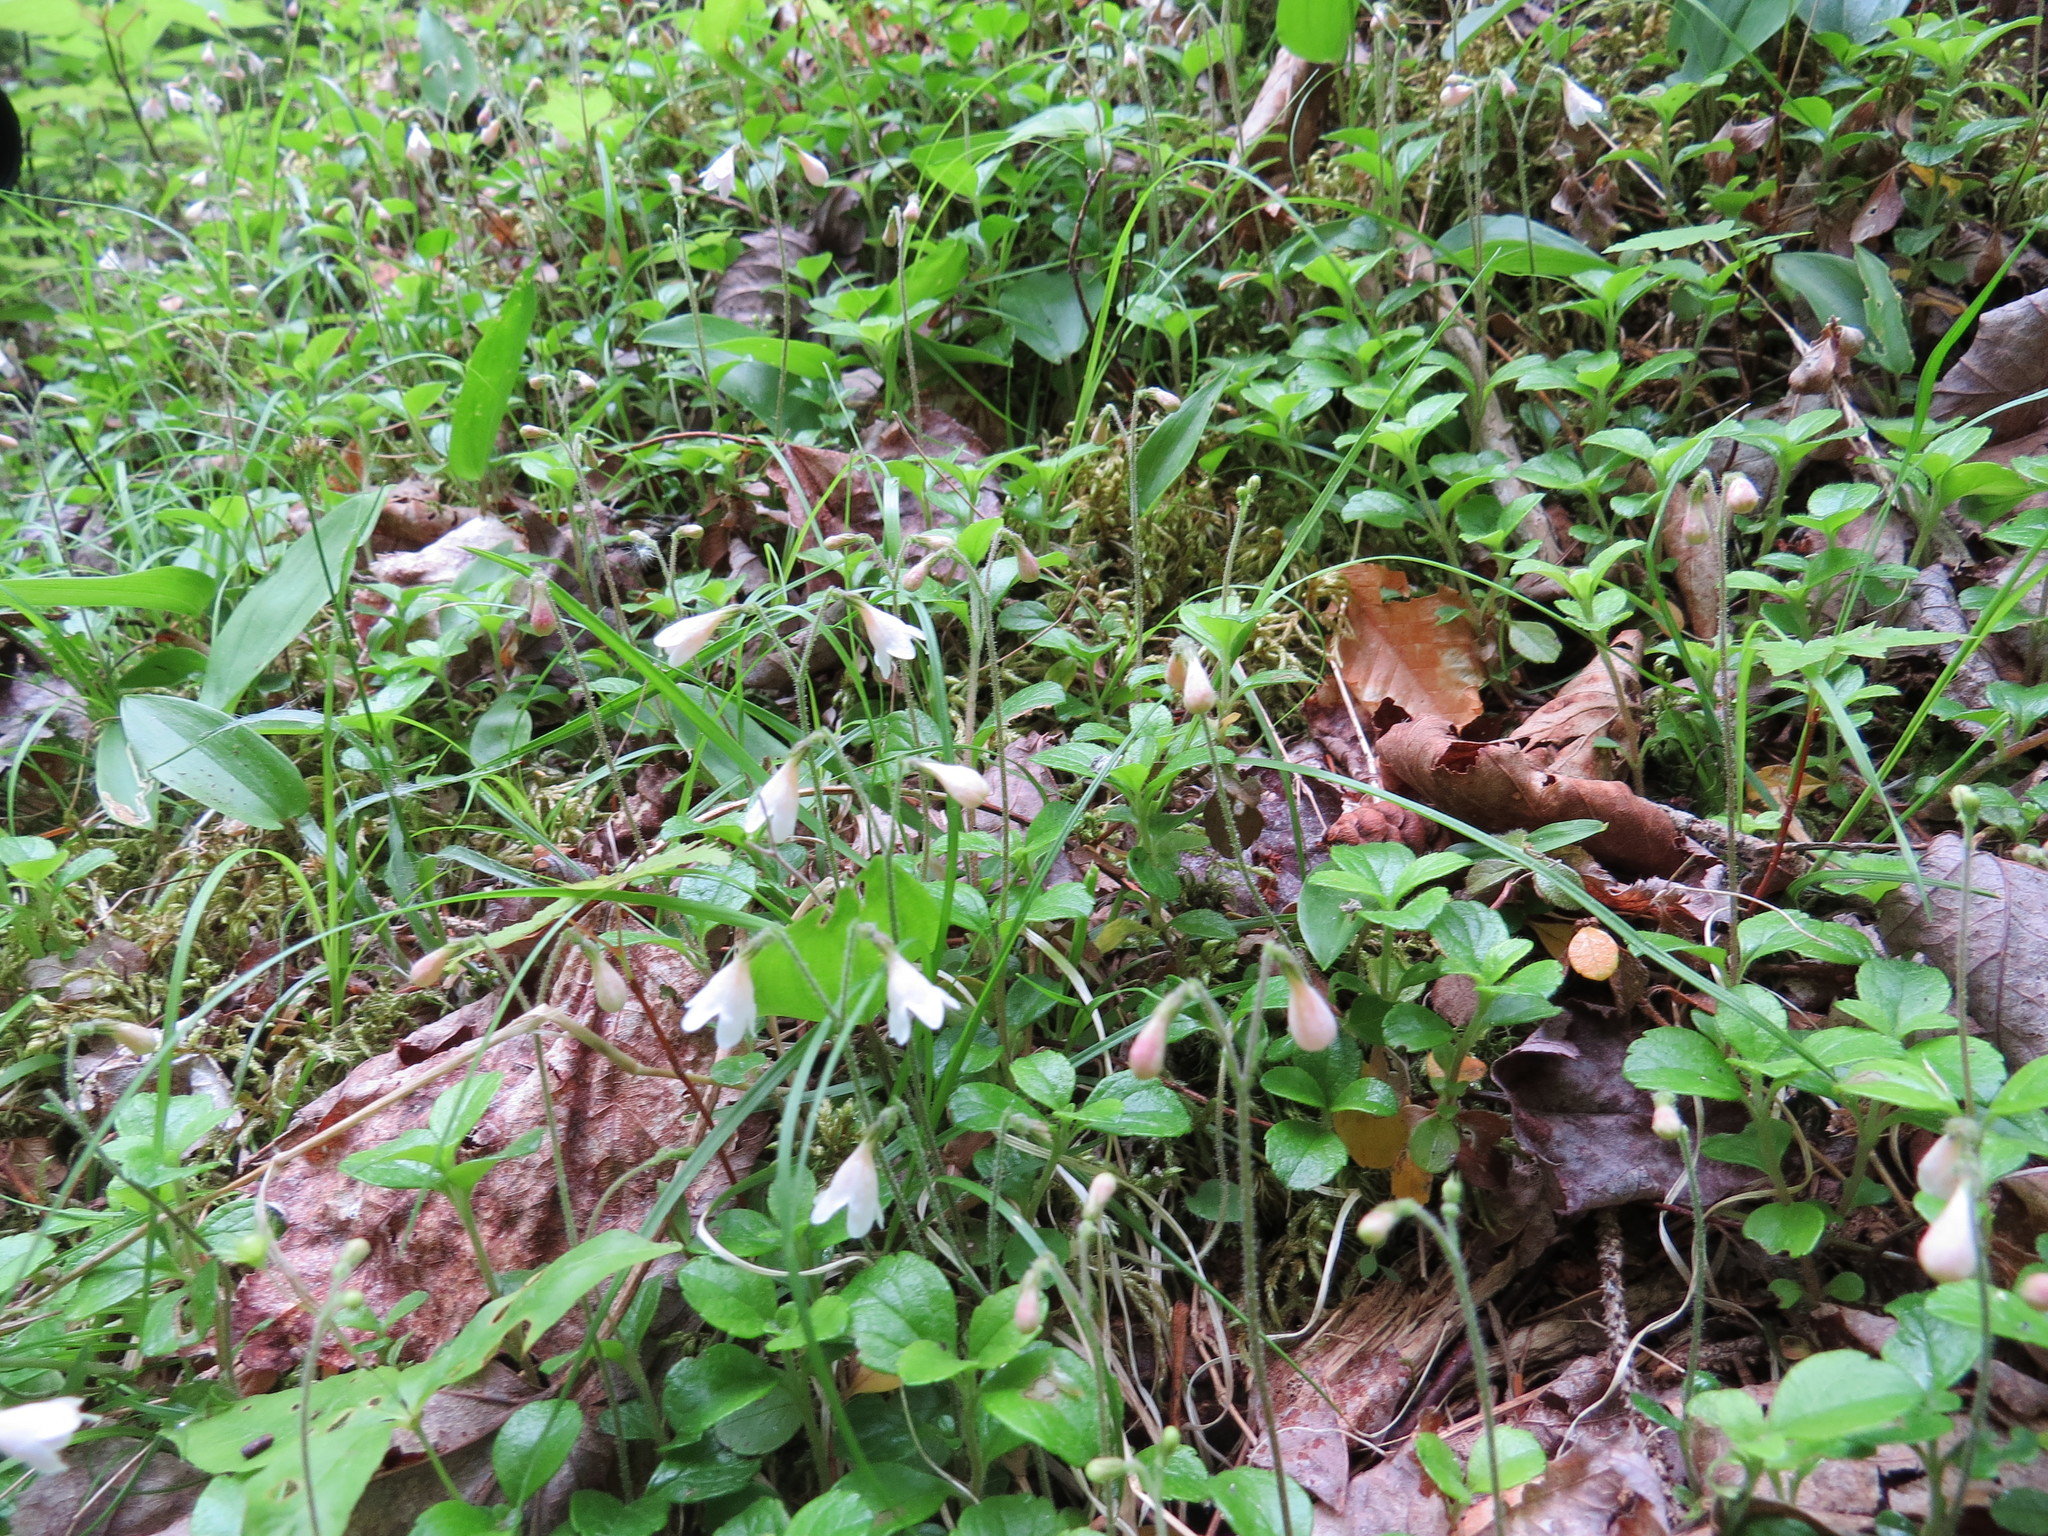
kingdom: Plantae
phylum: Tracheophyta
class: Magnoliopsida
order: Dipsacales
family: Caprifoliaceae
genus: Linnaea
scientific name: Linnaea borealis
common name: Twinflower
